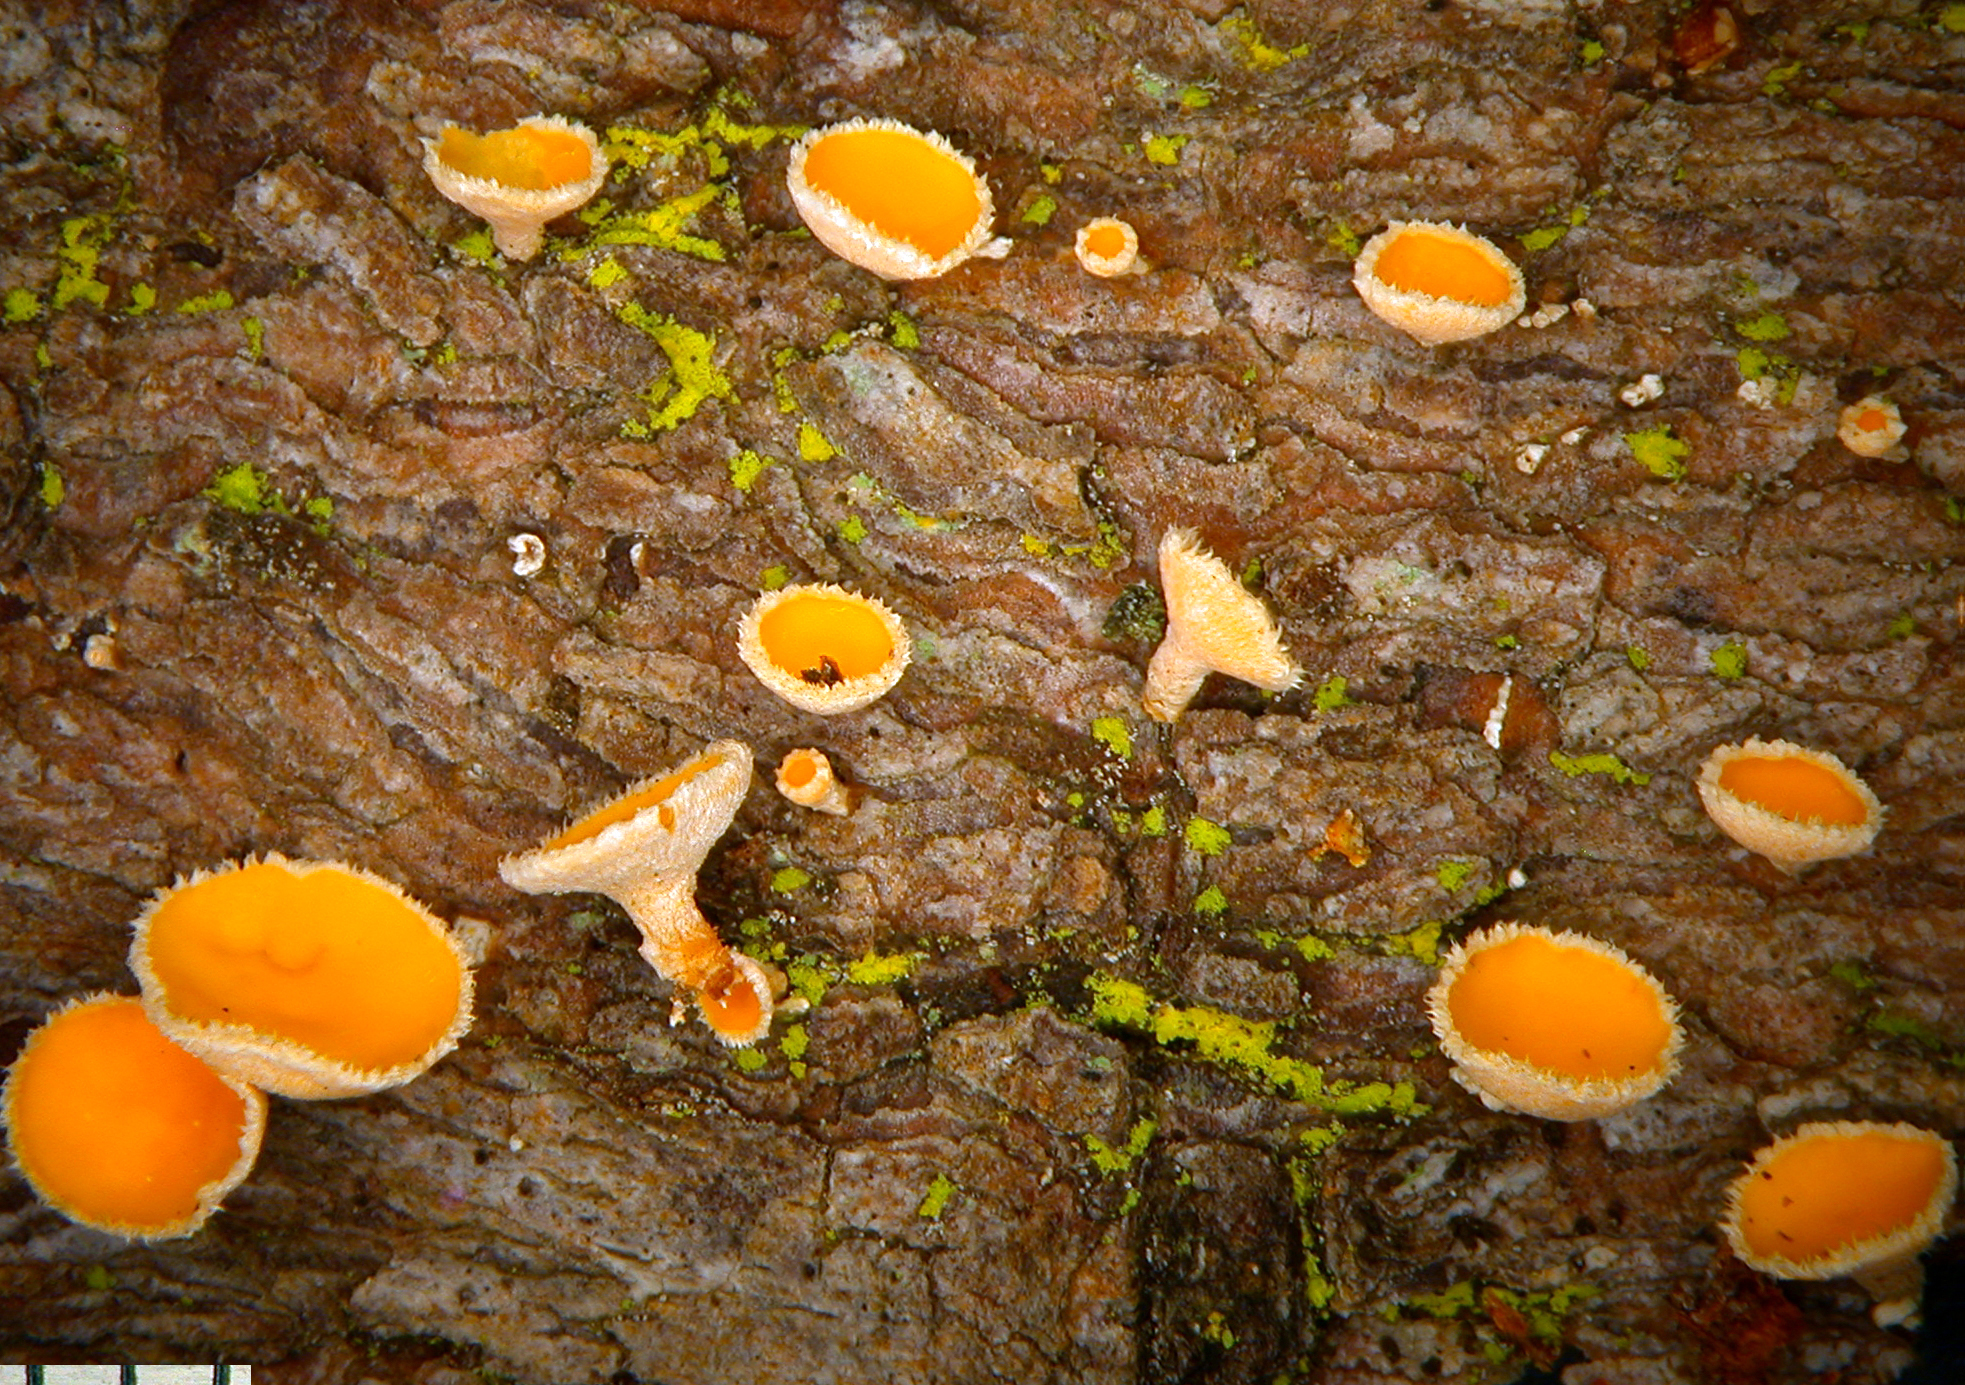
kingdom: Fungi
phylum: Ascomycota
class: Leotiomycetes
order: Helotiales
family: Lachnaceae
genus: Lachnellula
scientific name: Lachnellula subtilissima
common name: Conifer disco
